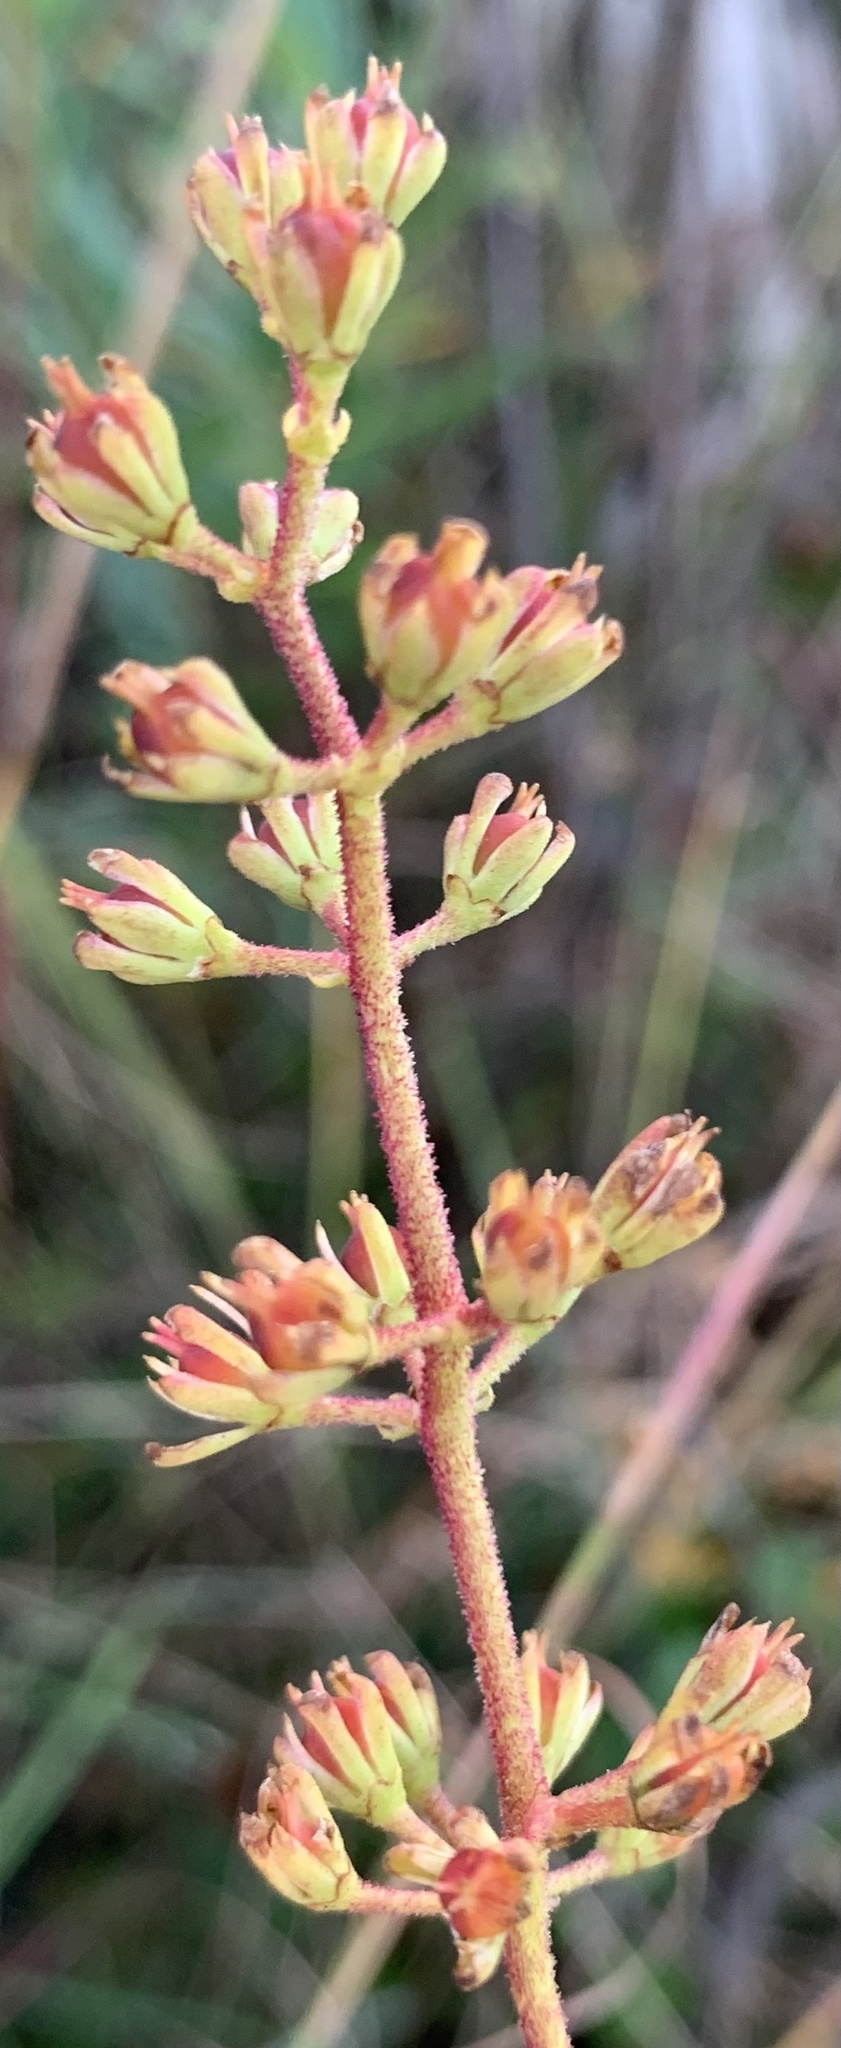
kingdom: Plantae
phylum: Tracheophyta
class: Liliopsida
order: Alismatales
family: Tofieldiaceae
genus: Triantha
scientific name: Triantha racemosa
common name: Coastal false asphodel
